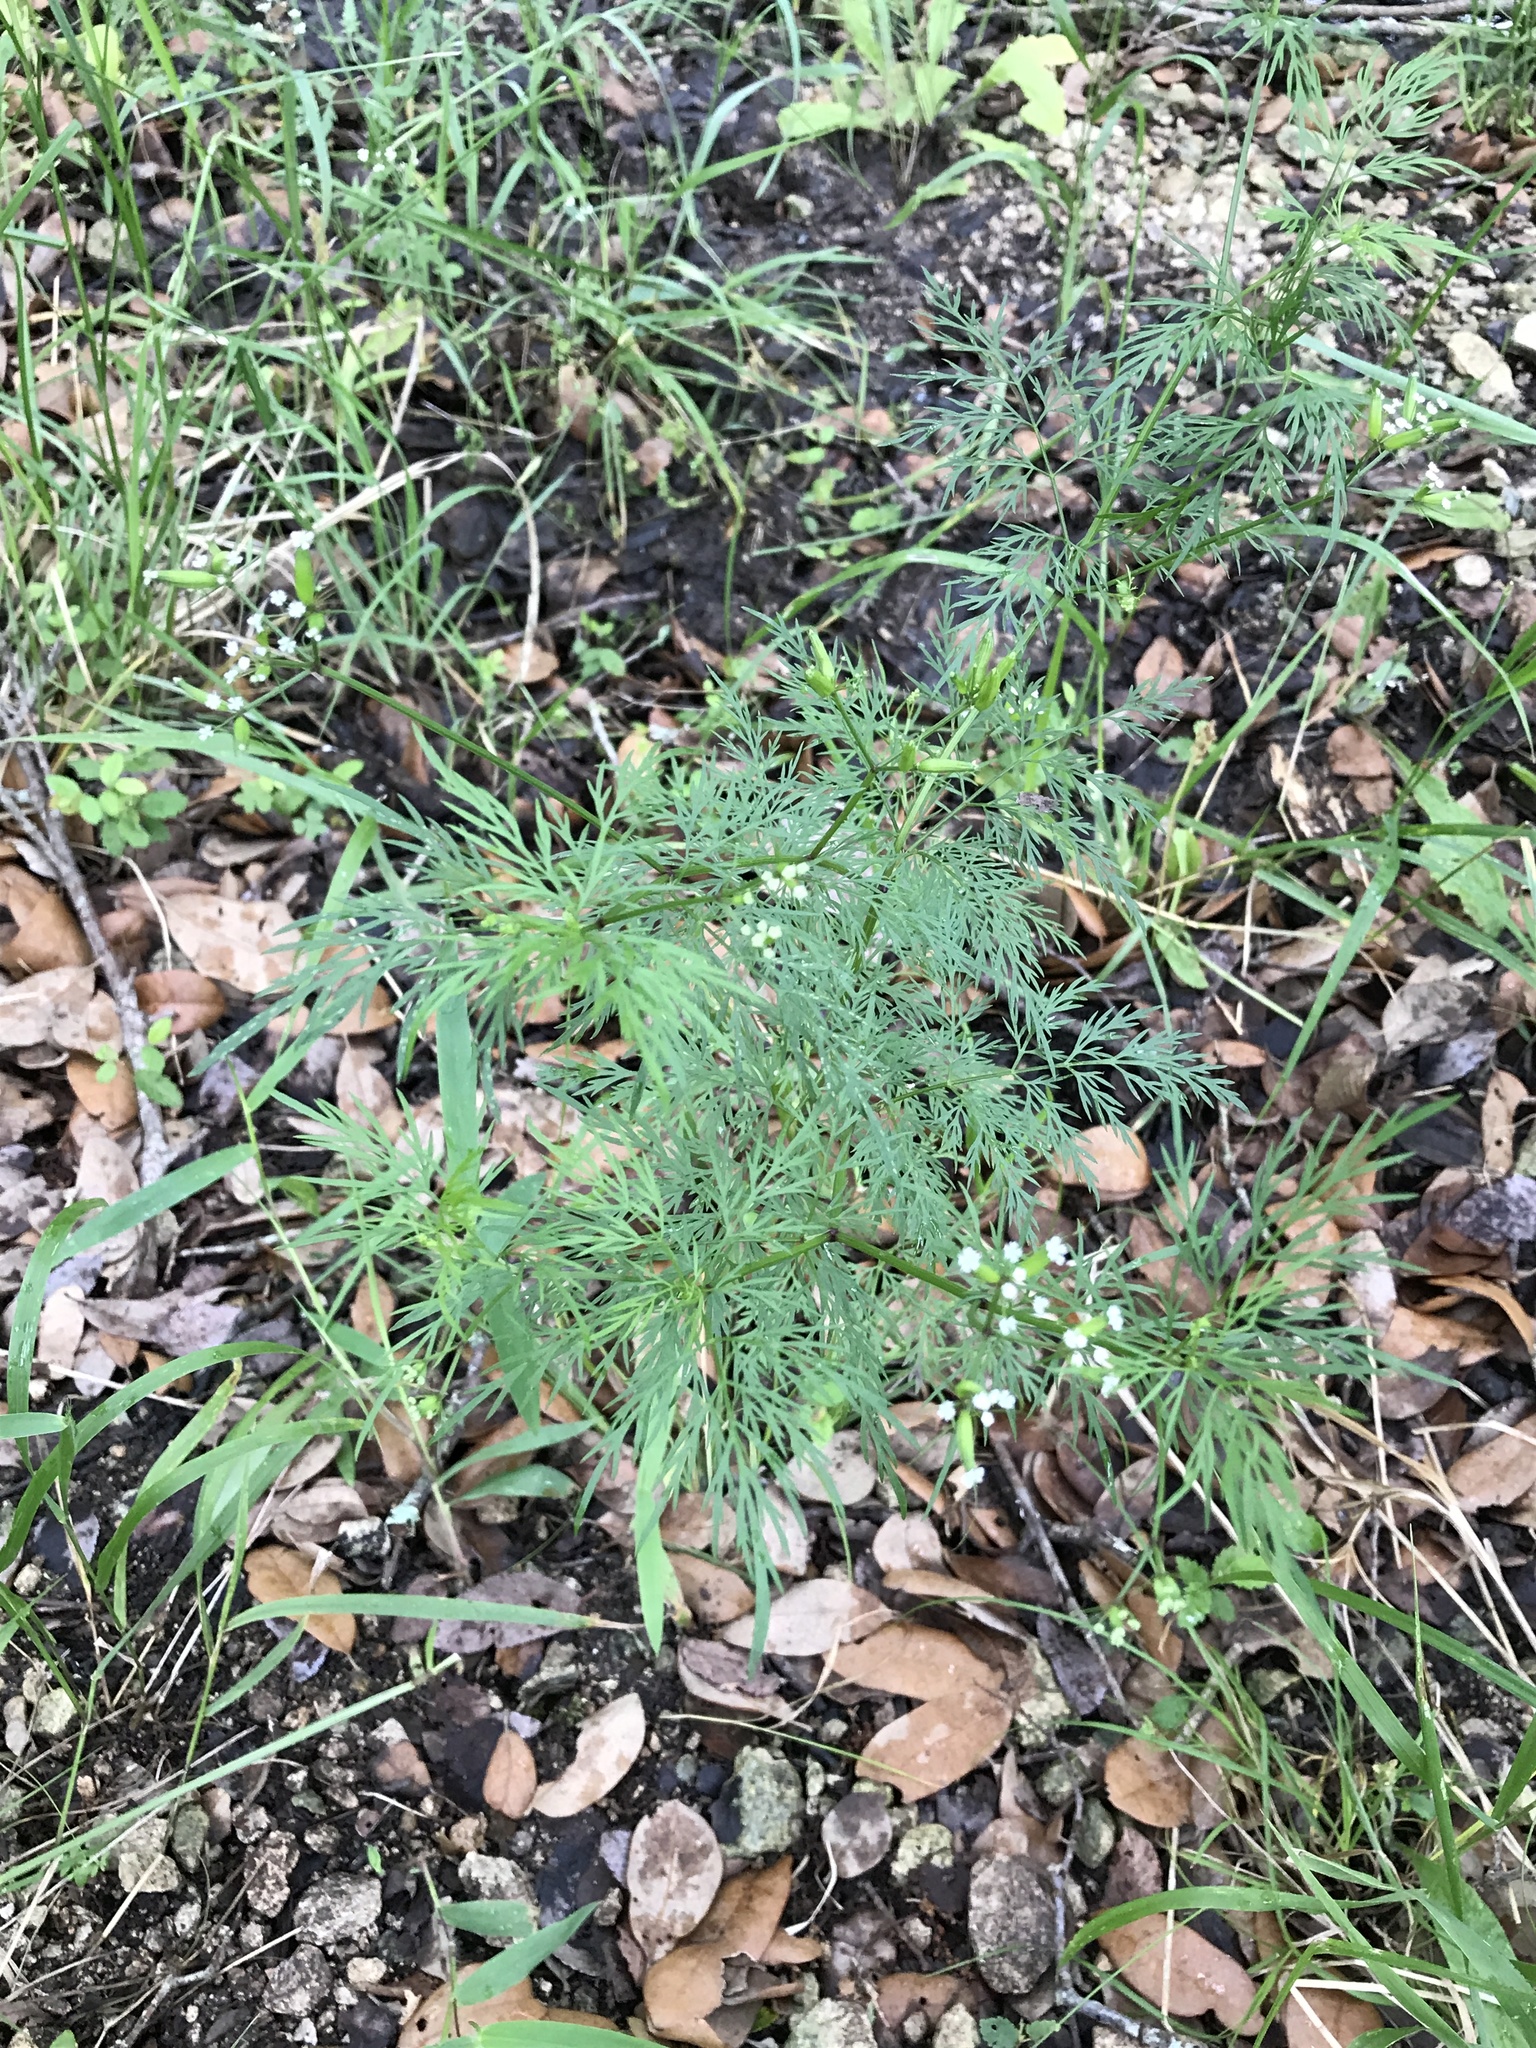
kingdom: Plantae
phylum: Tracheophyta
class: Magnoliopsida
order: Apiales
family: Apiaceae
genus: Trepocarpus
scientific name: Trepocarpus aethusae
